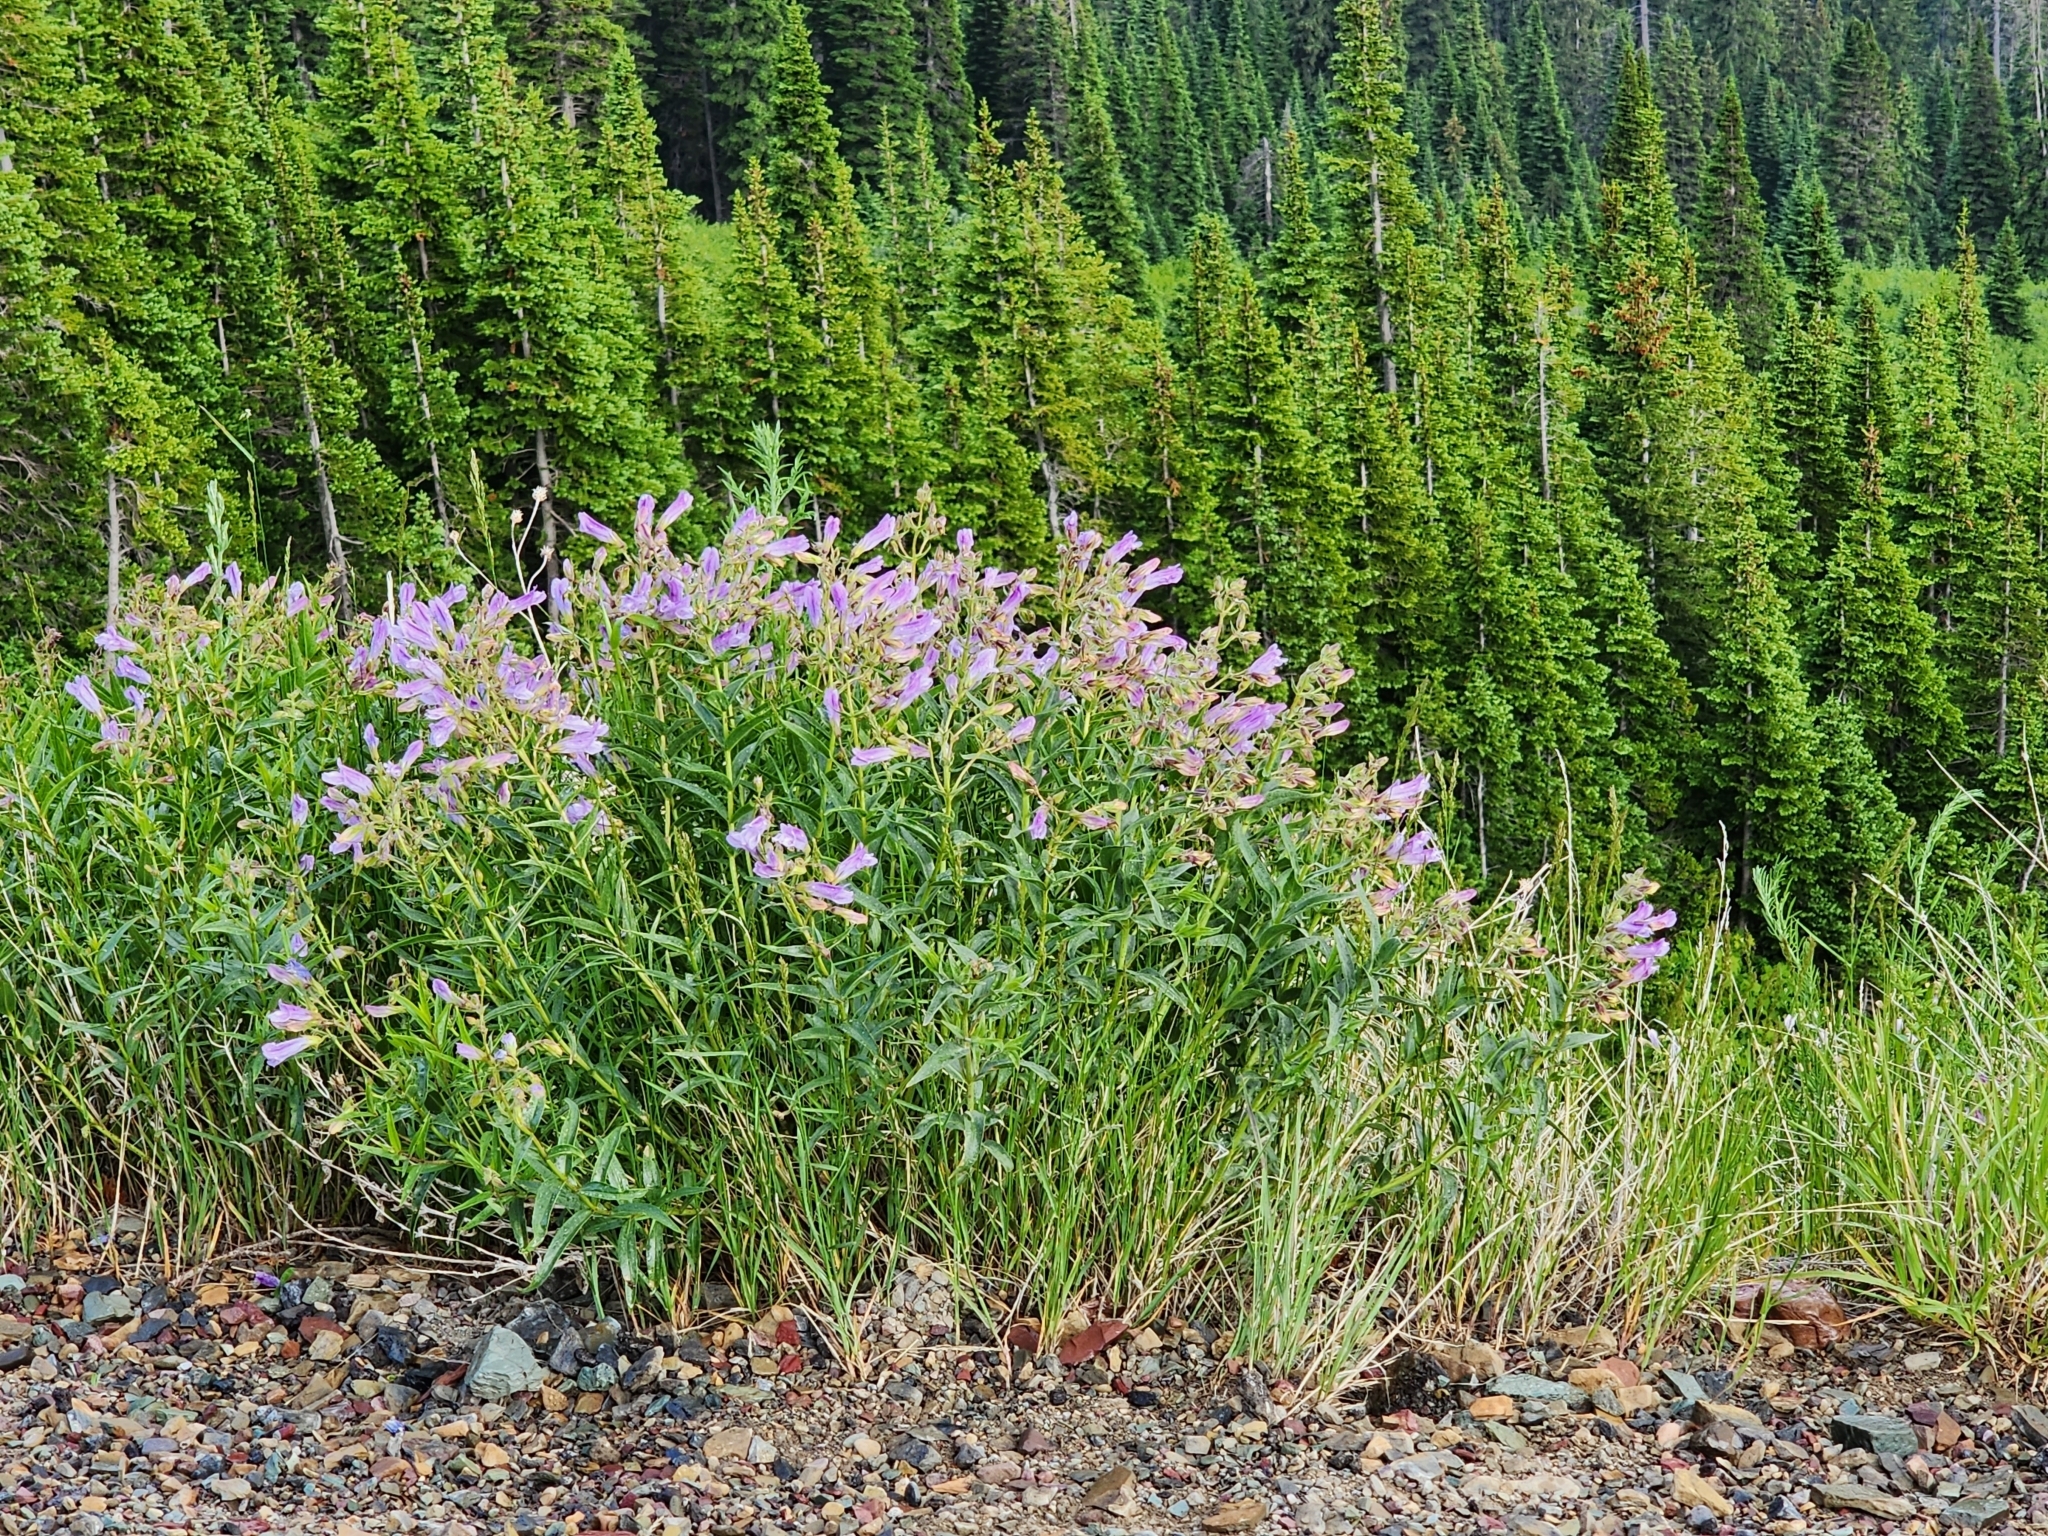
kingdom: Plantae
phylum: Tracheophyta
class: Magnoliopsida
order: Lamiales
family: Plantaginaceae
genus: Penstemon
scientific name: Penstemon lyalli
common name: Lyall's beardtongue
